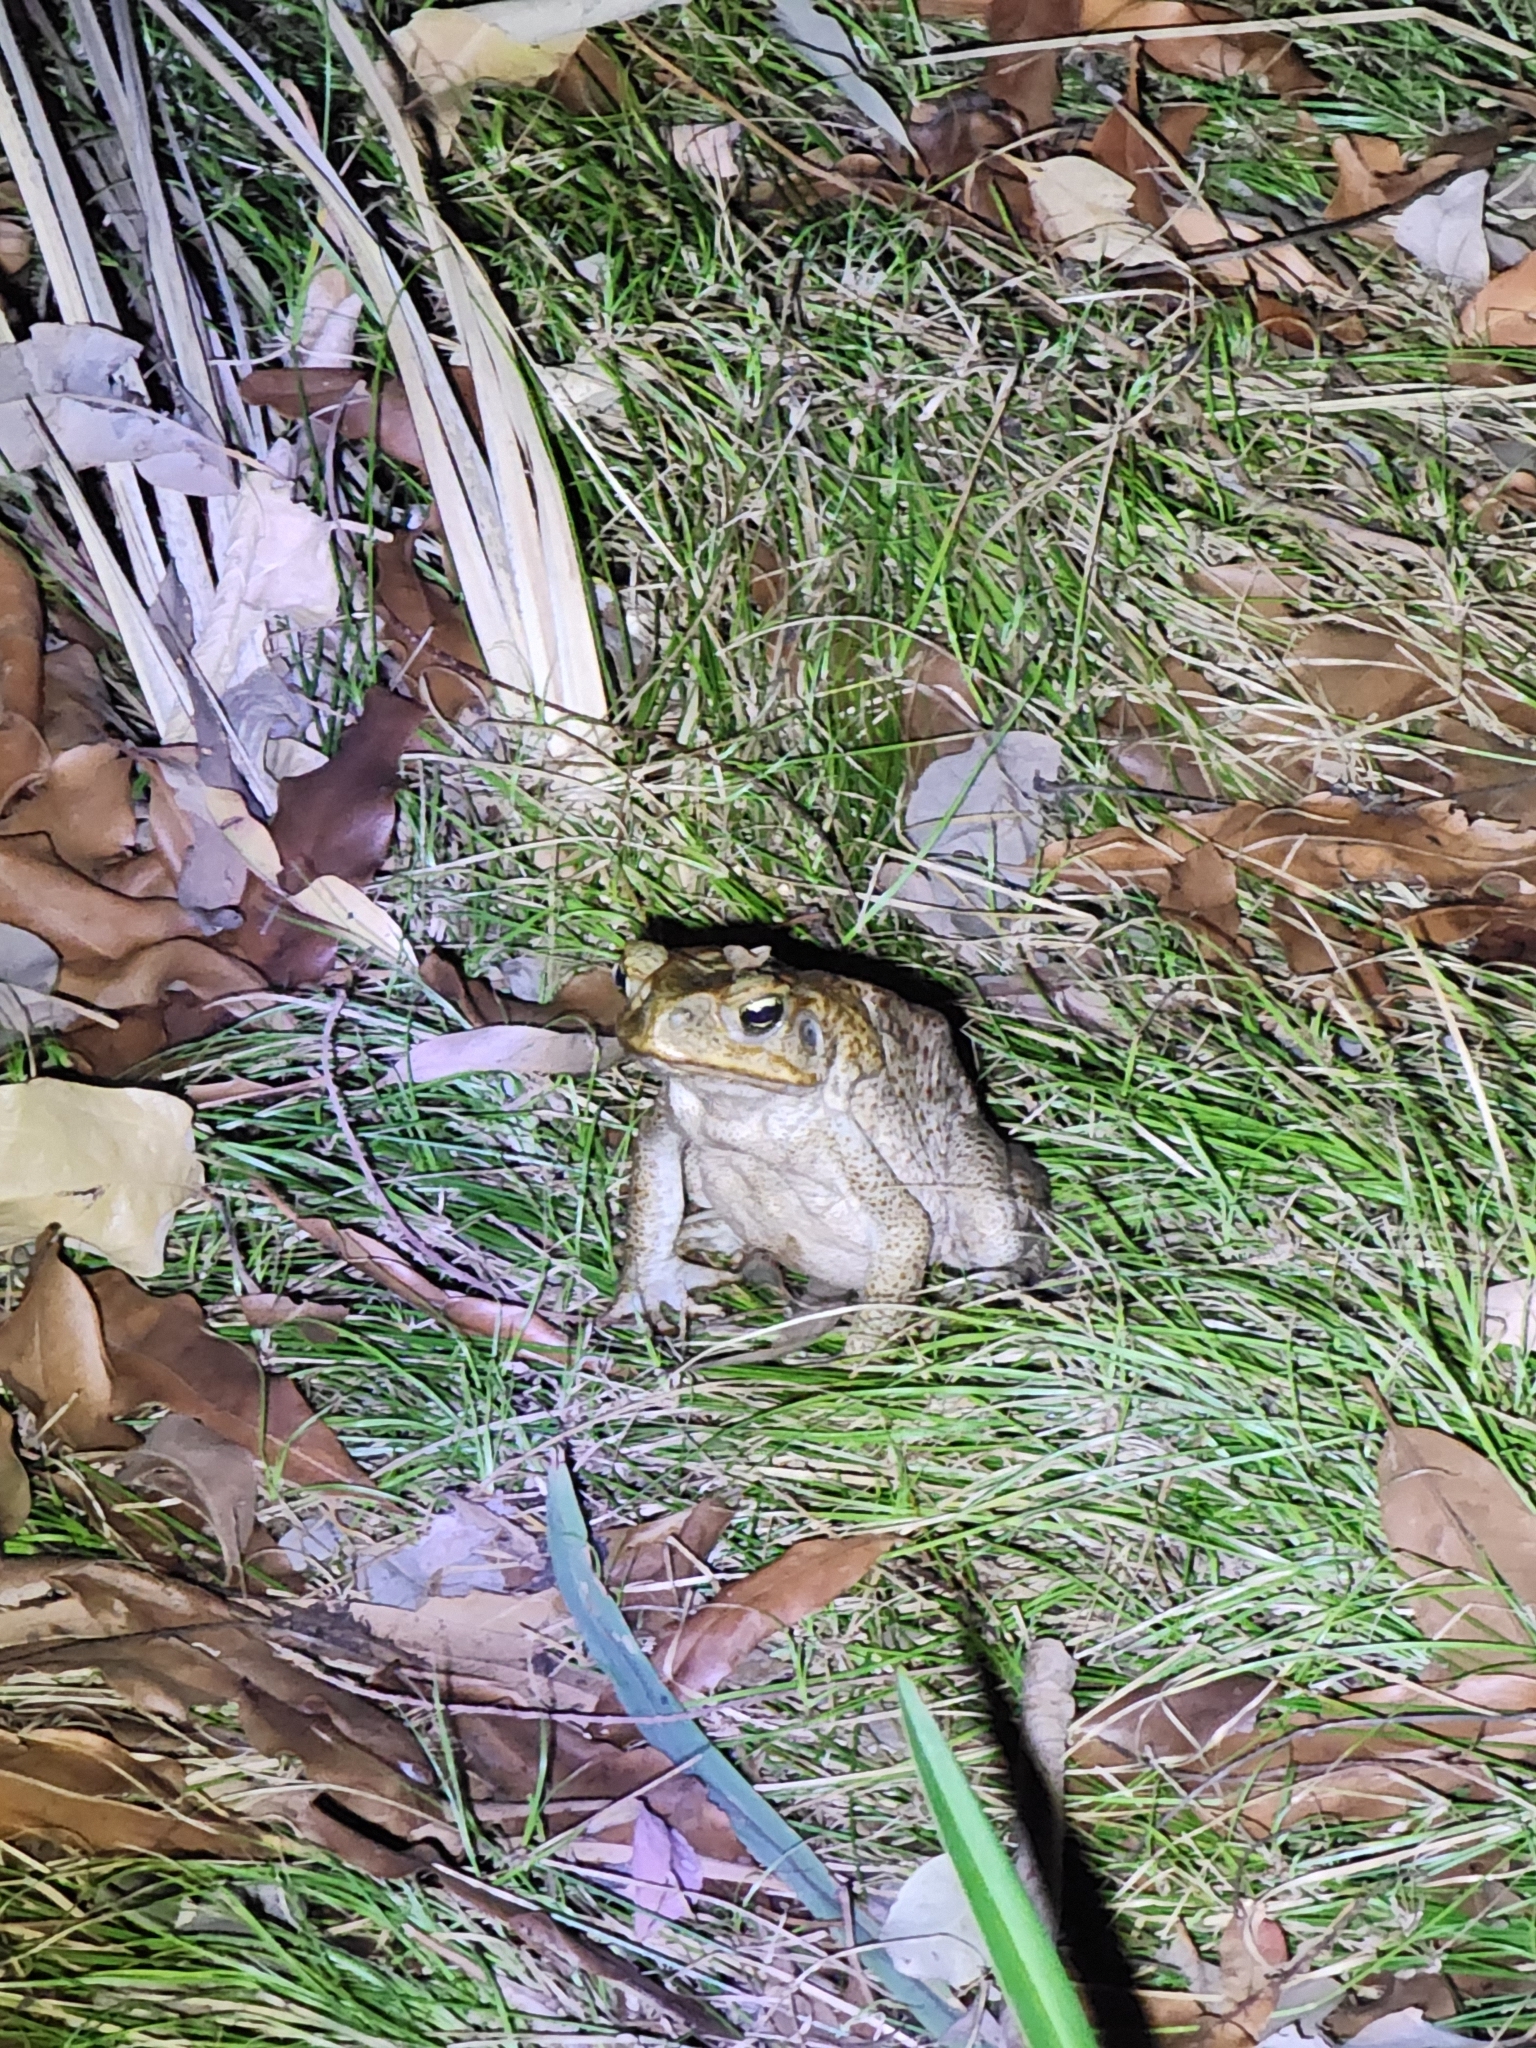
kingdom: Animalia
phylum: Chordata
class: Amphibia
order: Anura
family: Bufonidae
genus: Rhinella
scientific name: Rhinella marina
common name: Cane toad
